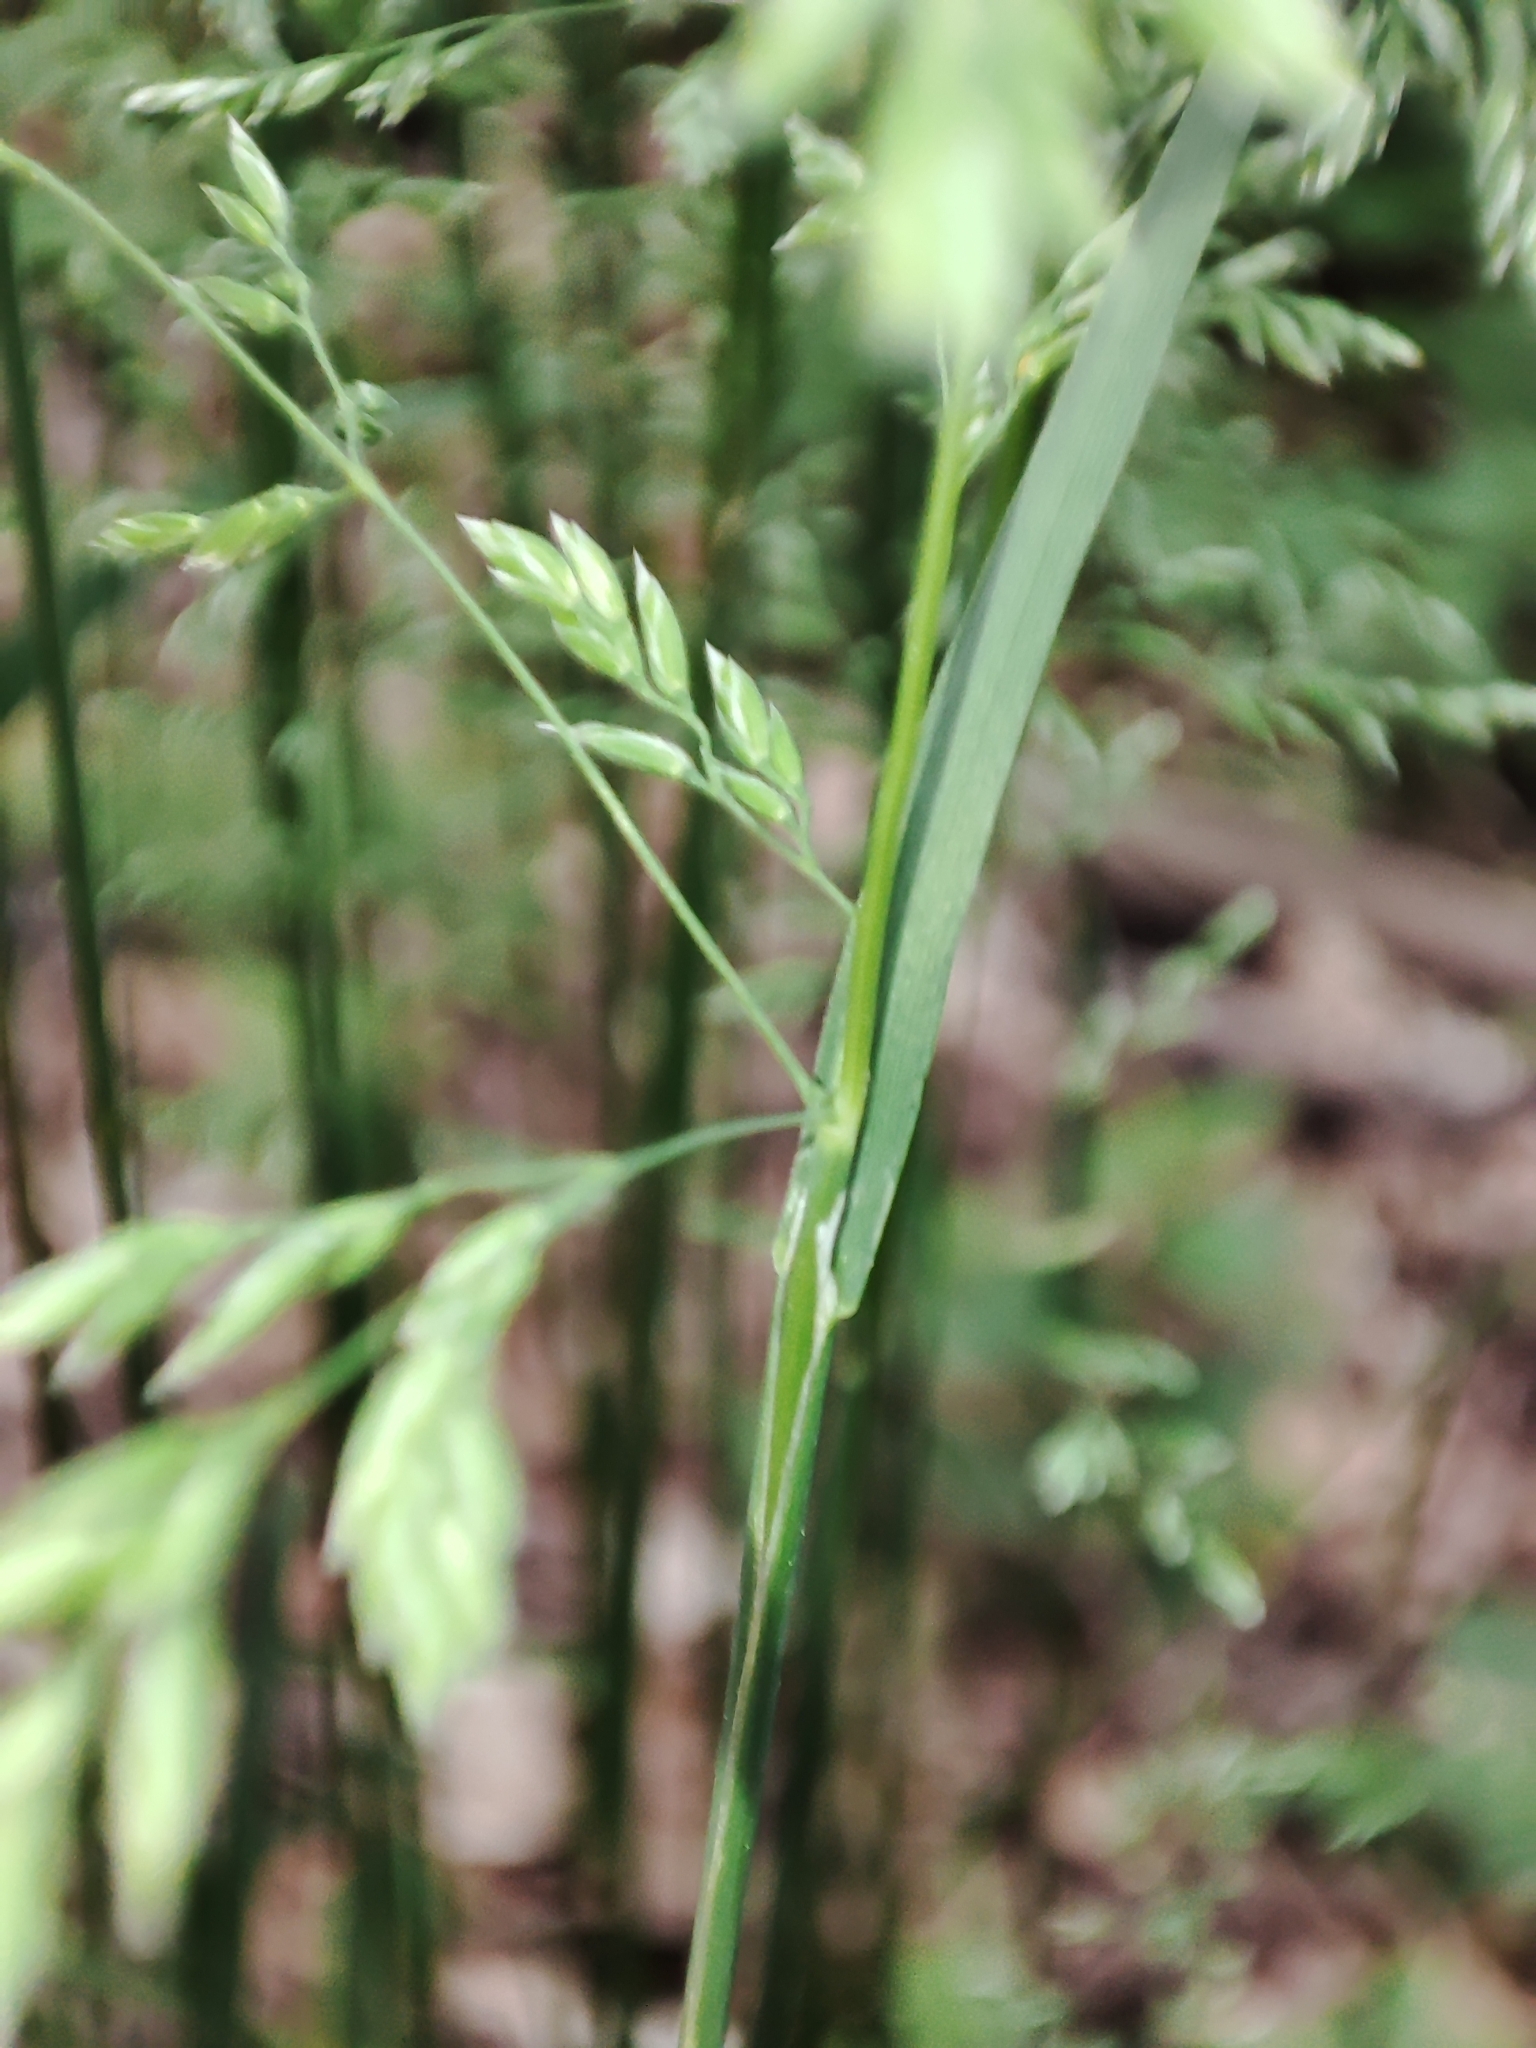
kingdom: Plantae
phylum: Tracheophyta
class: Liliopsida
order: Poales
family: Poaceae
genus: Poa
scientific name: Poa trivialis
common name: Rough bluegrass
